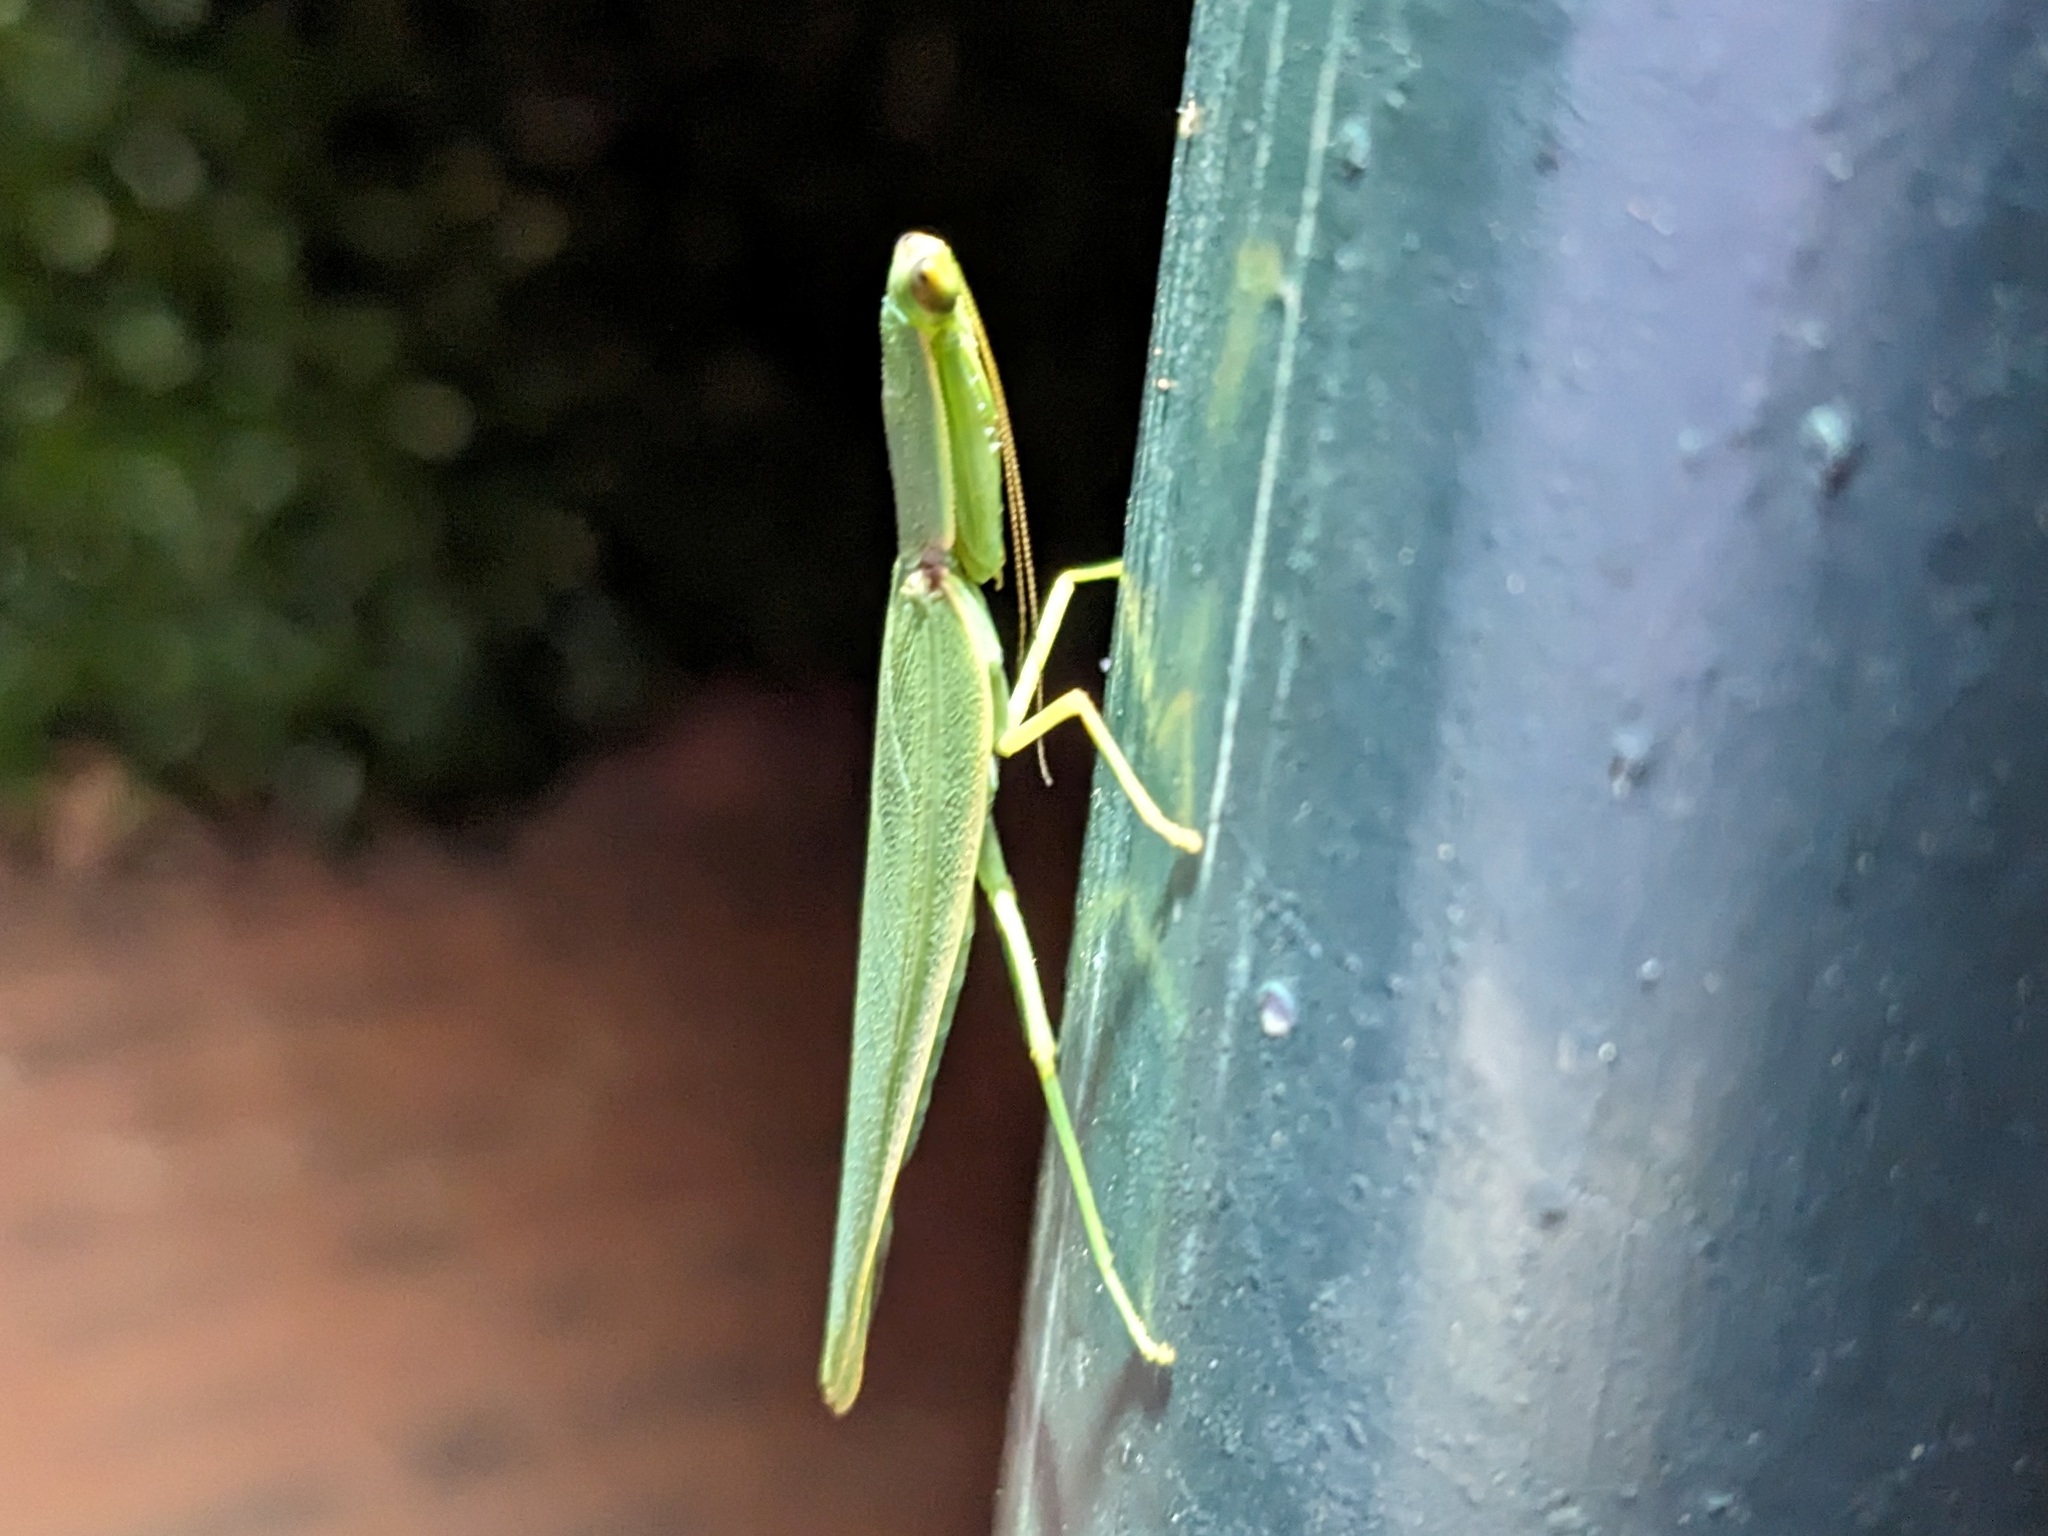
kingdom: Animalia
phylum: Arthropoda
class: Insecta
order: Mantodea
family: Mantidae
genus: Orthodera
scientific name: Orthodera ministralis
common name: Mantis
